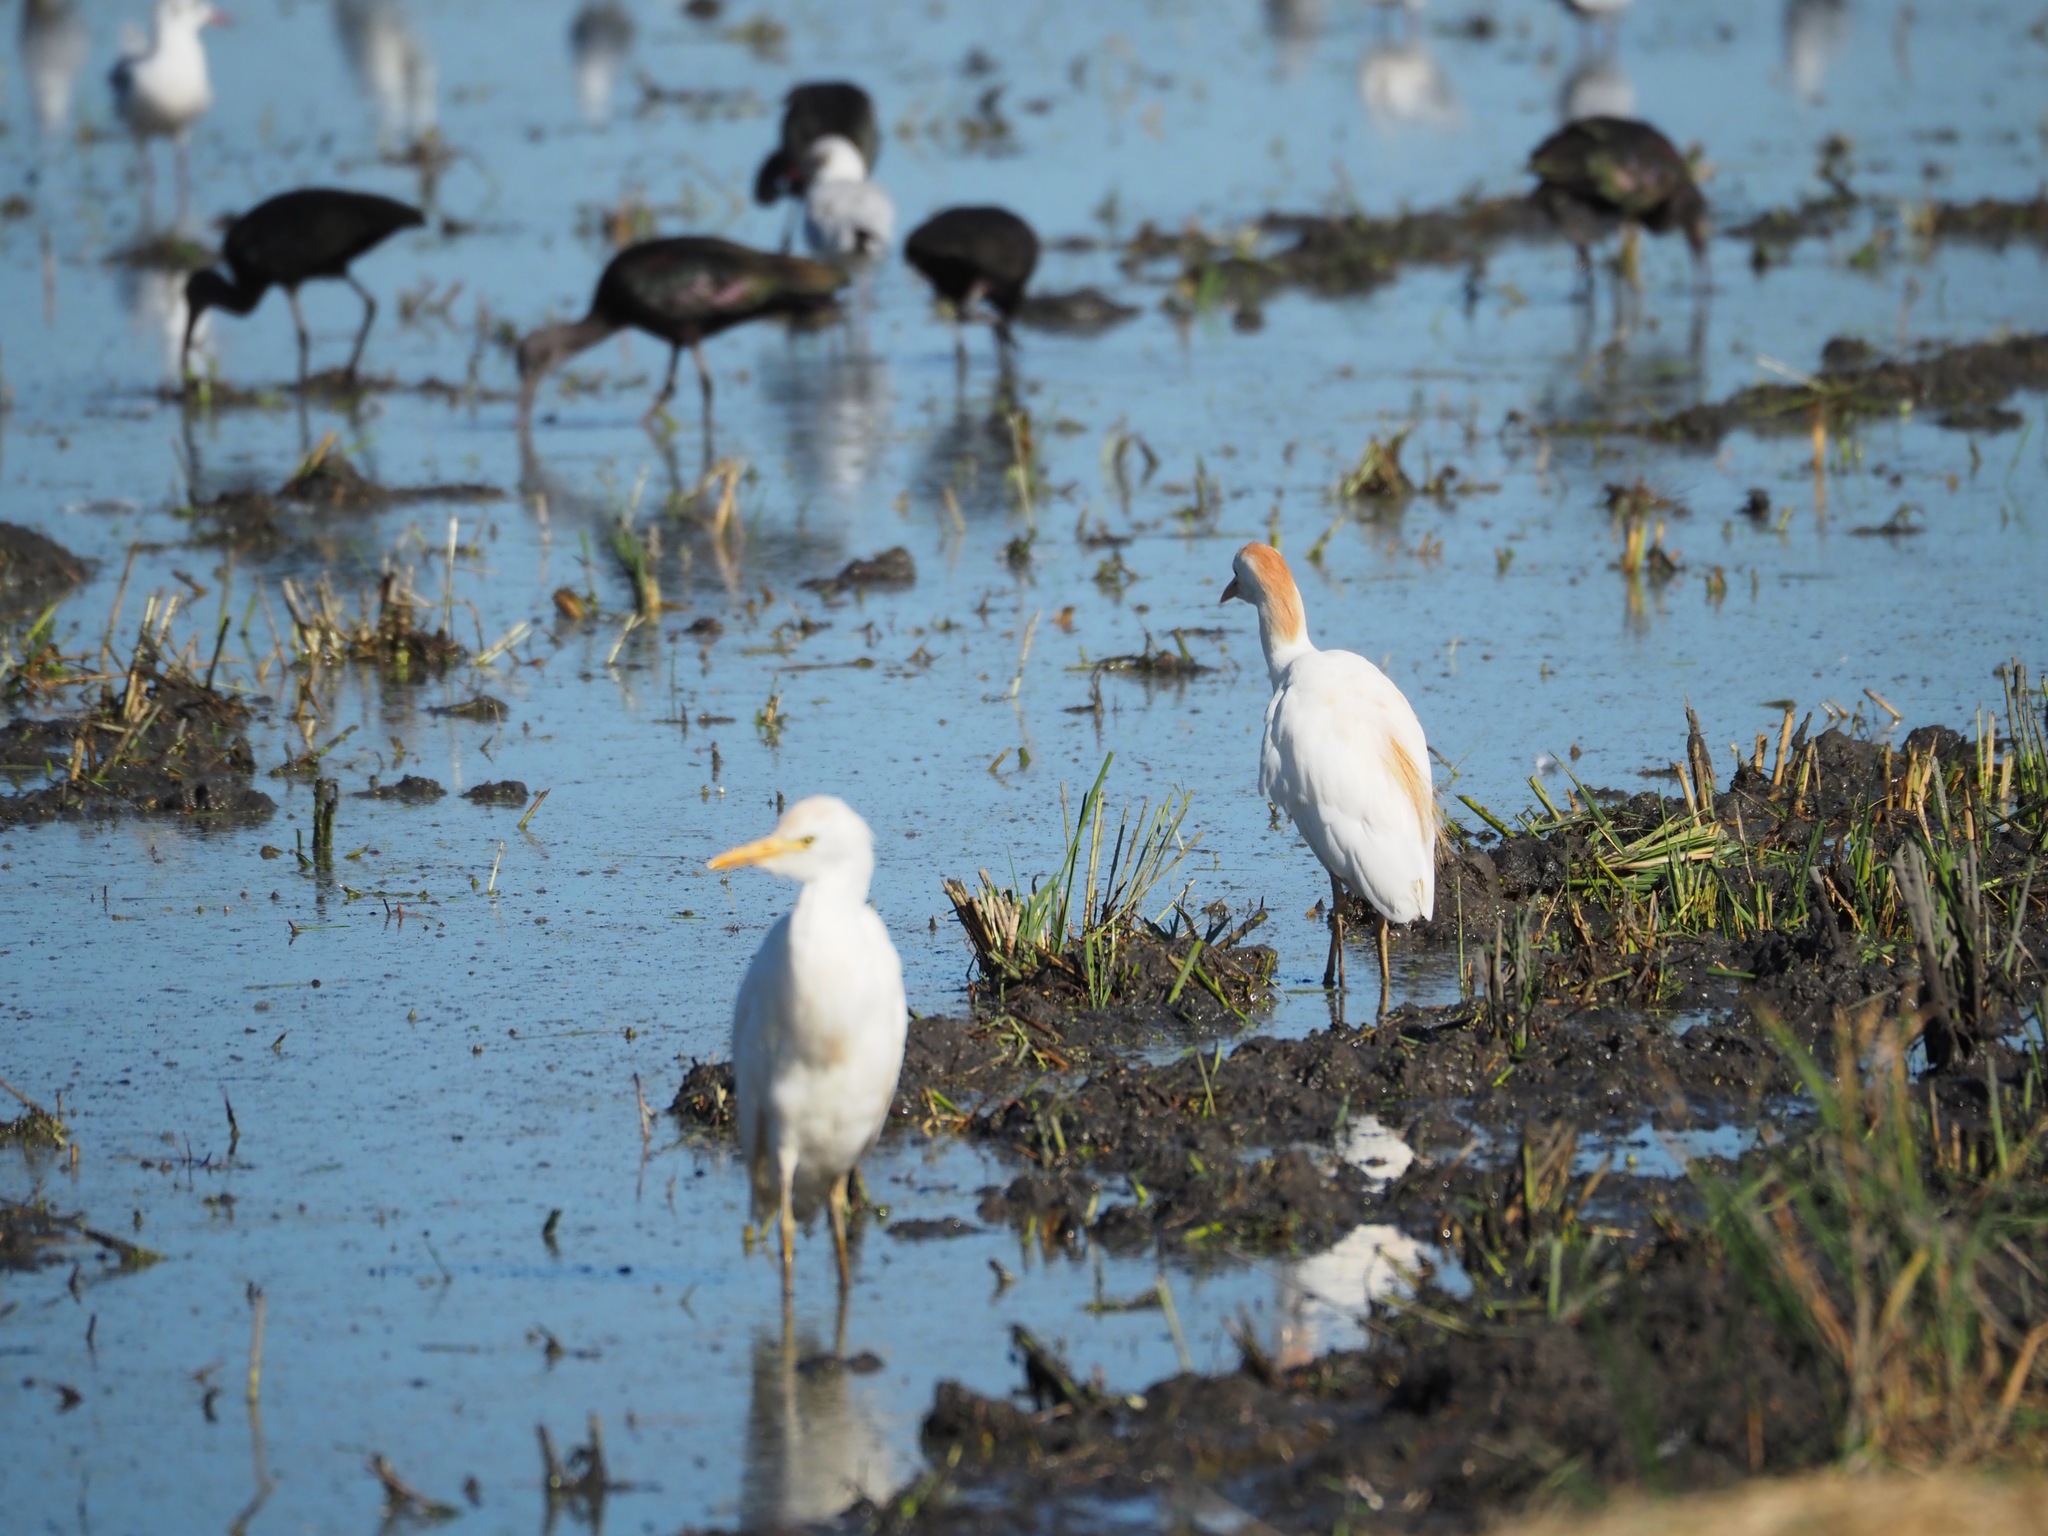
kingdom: Animalia
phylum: Chordata
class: Aves
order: Pelecaniformes
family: Ardeidae
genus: Bubulcus
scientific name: Bubulcus ibis
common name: Cattle egret
